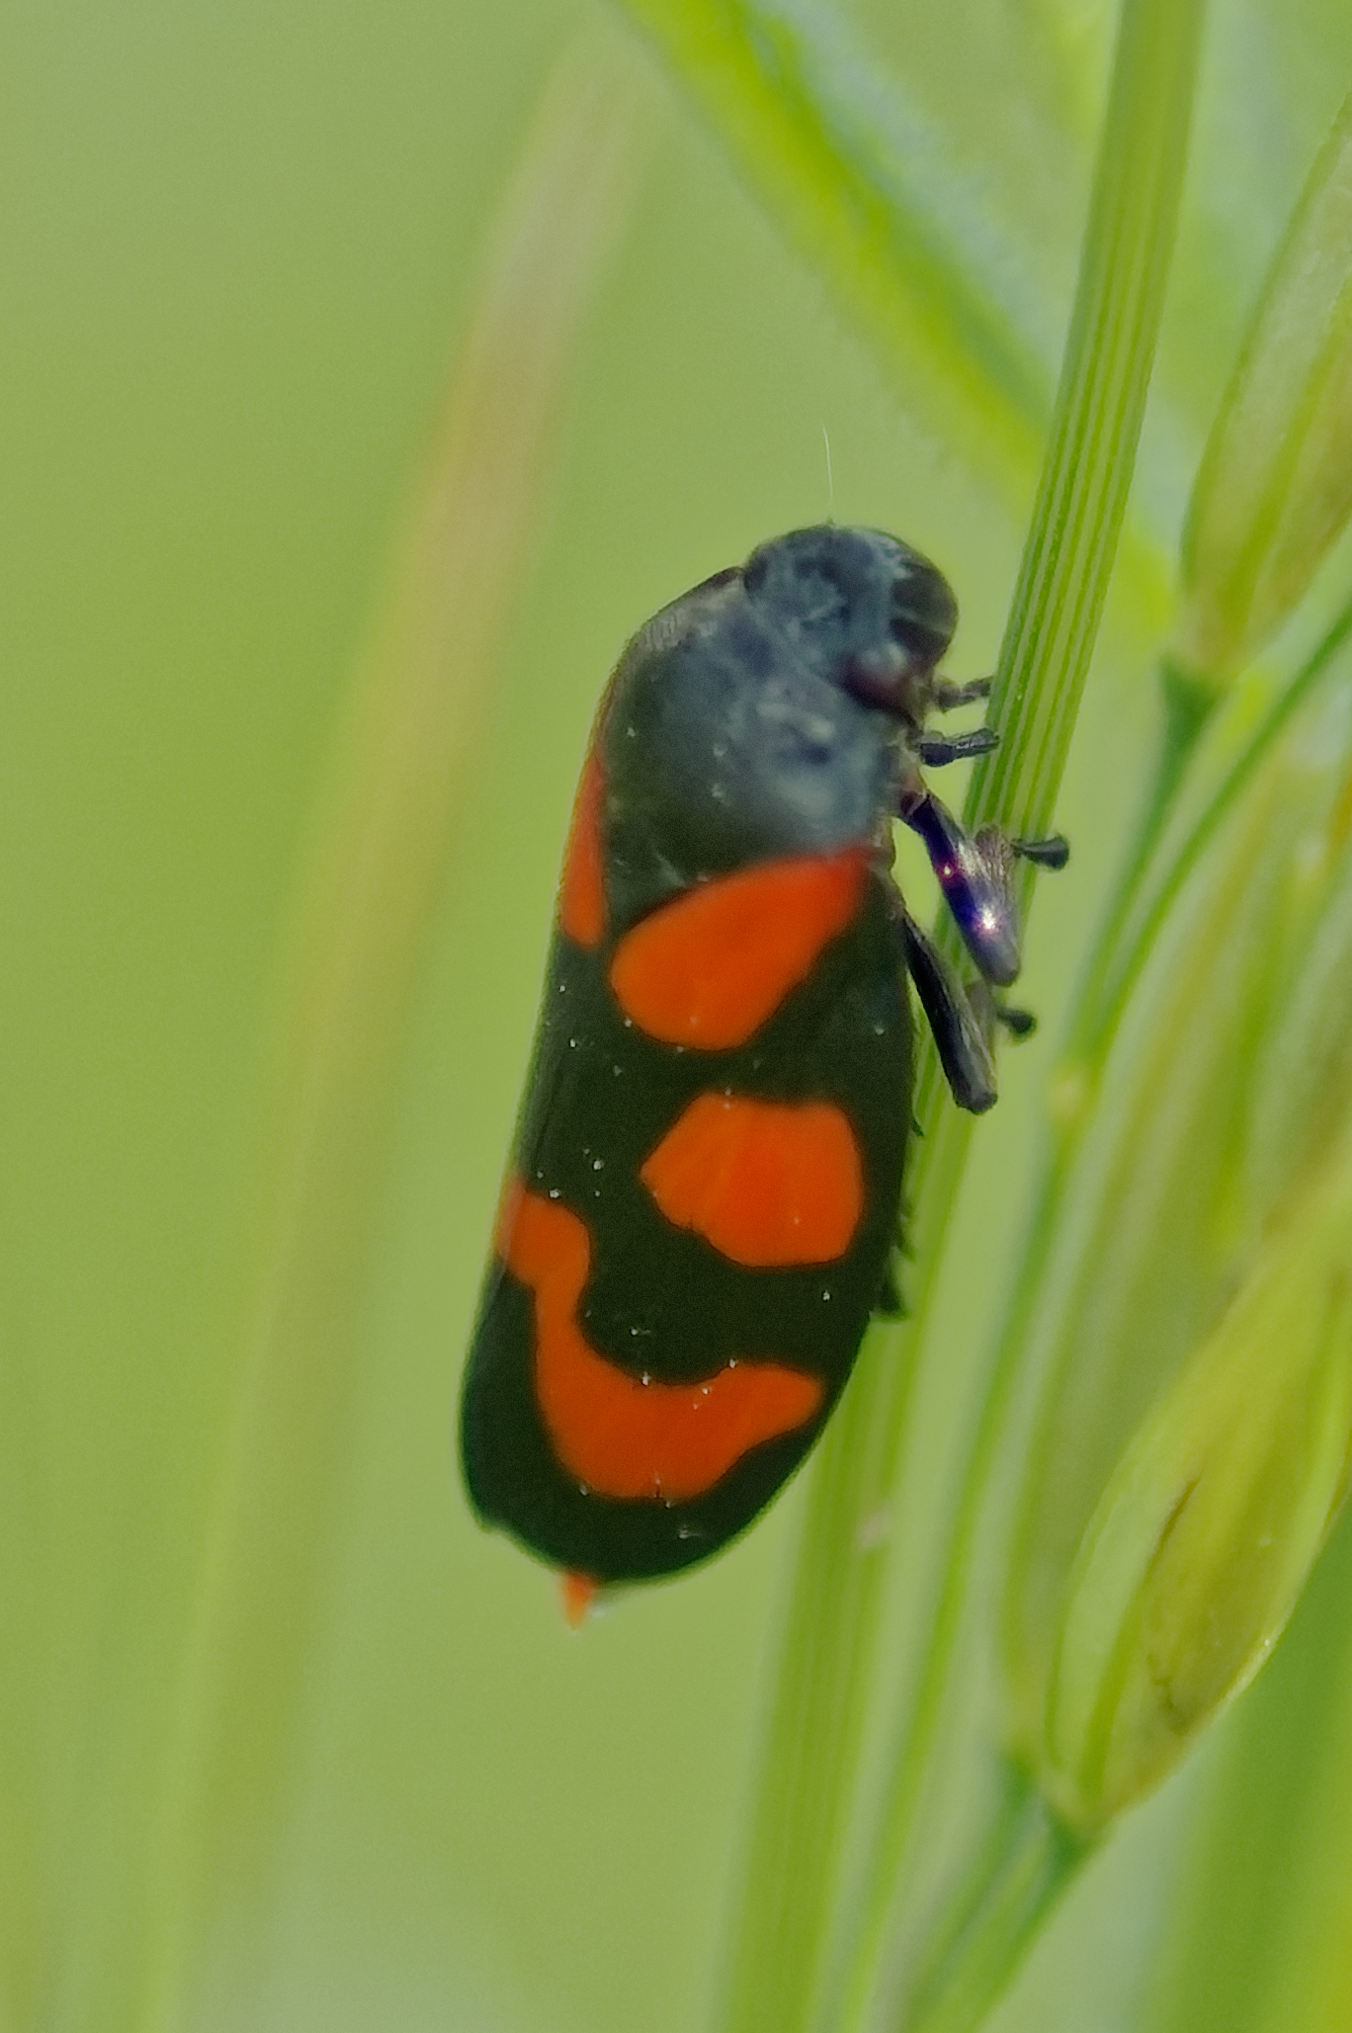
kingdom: Animalia
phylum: Arthropoda
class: Insecta
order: Hemiptera
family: Cercopidae
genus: Cercopis
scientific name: Cercopis vulnerata
